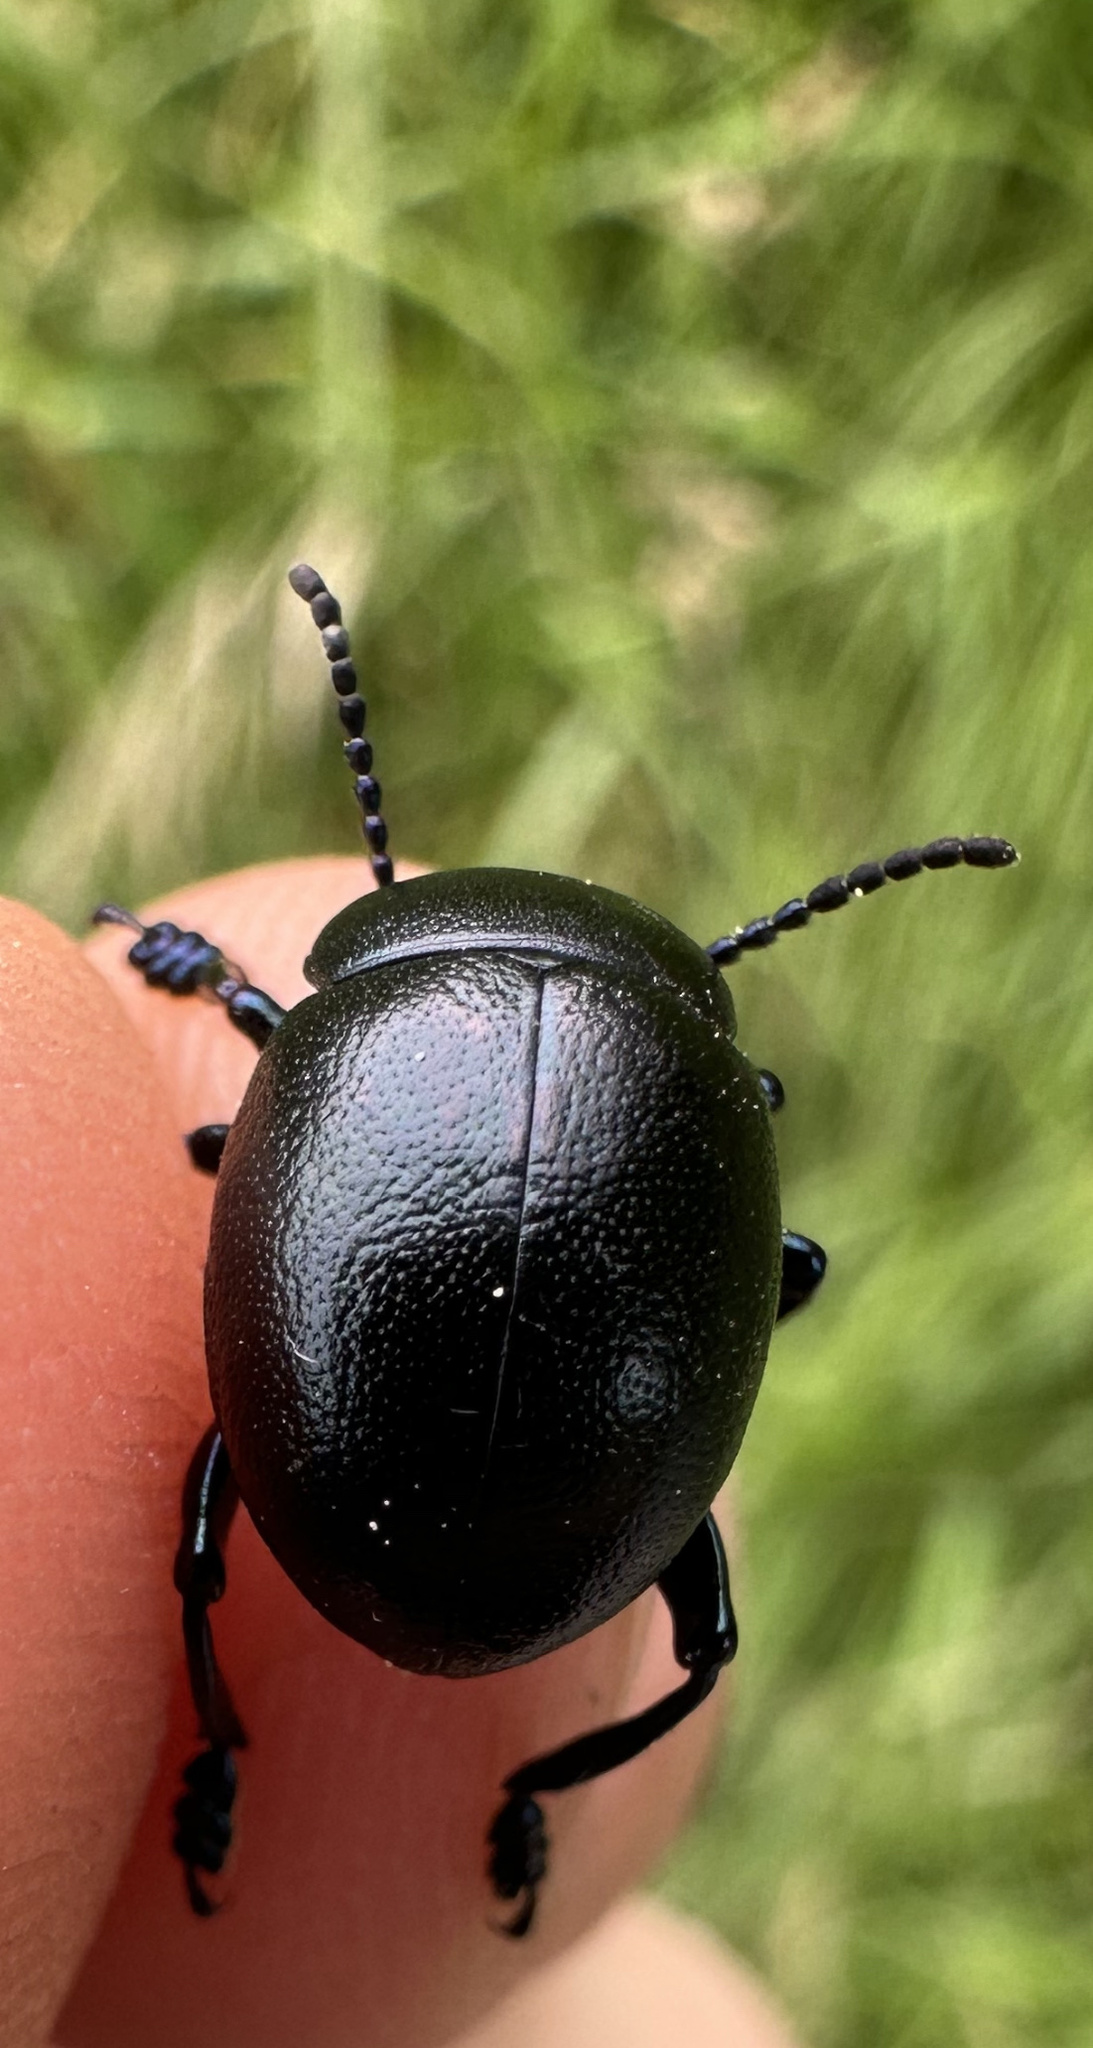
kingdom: Animalia
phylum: Arthropoda
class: Insecta
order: Coleoptera
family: Chrysomelidae
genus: Timarcha
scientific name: Timarcha goettingensis
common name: Small bloody-nosed beetle
